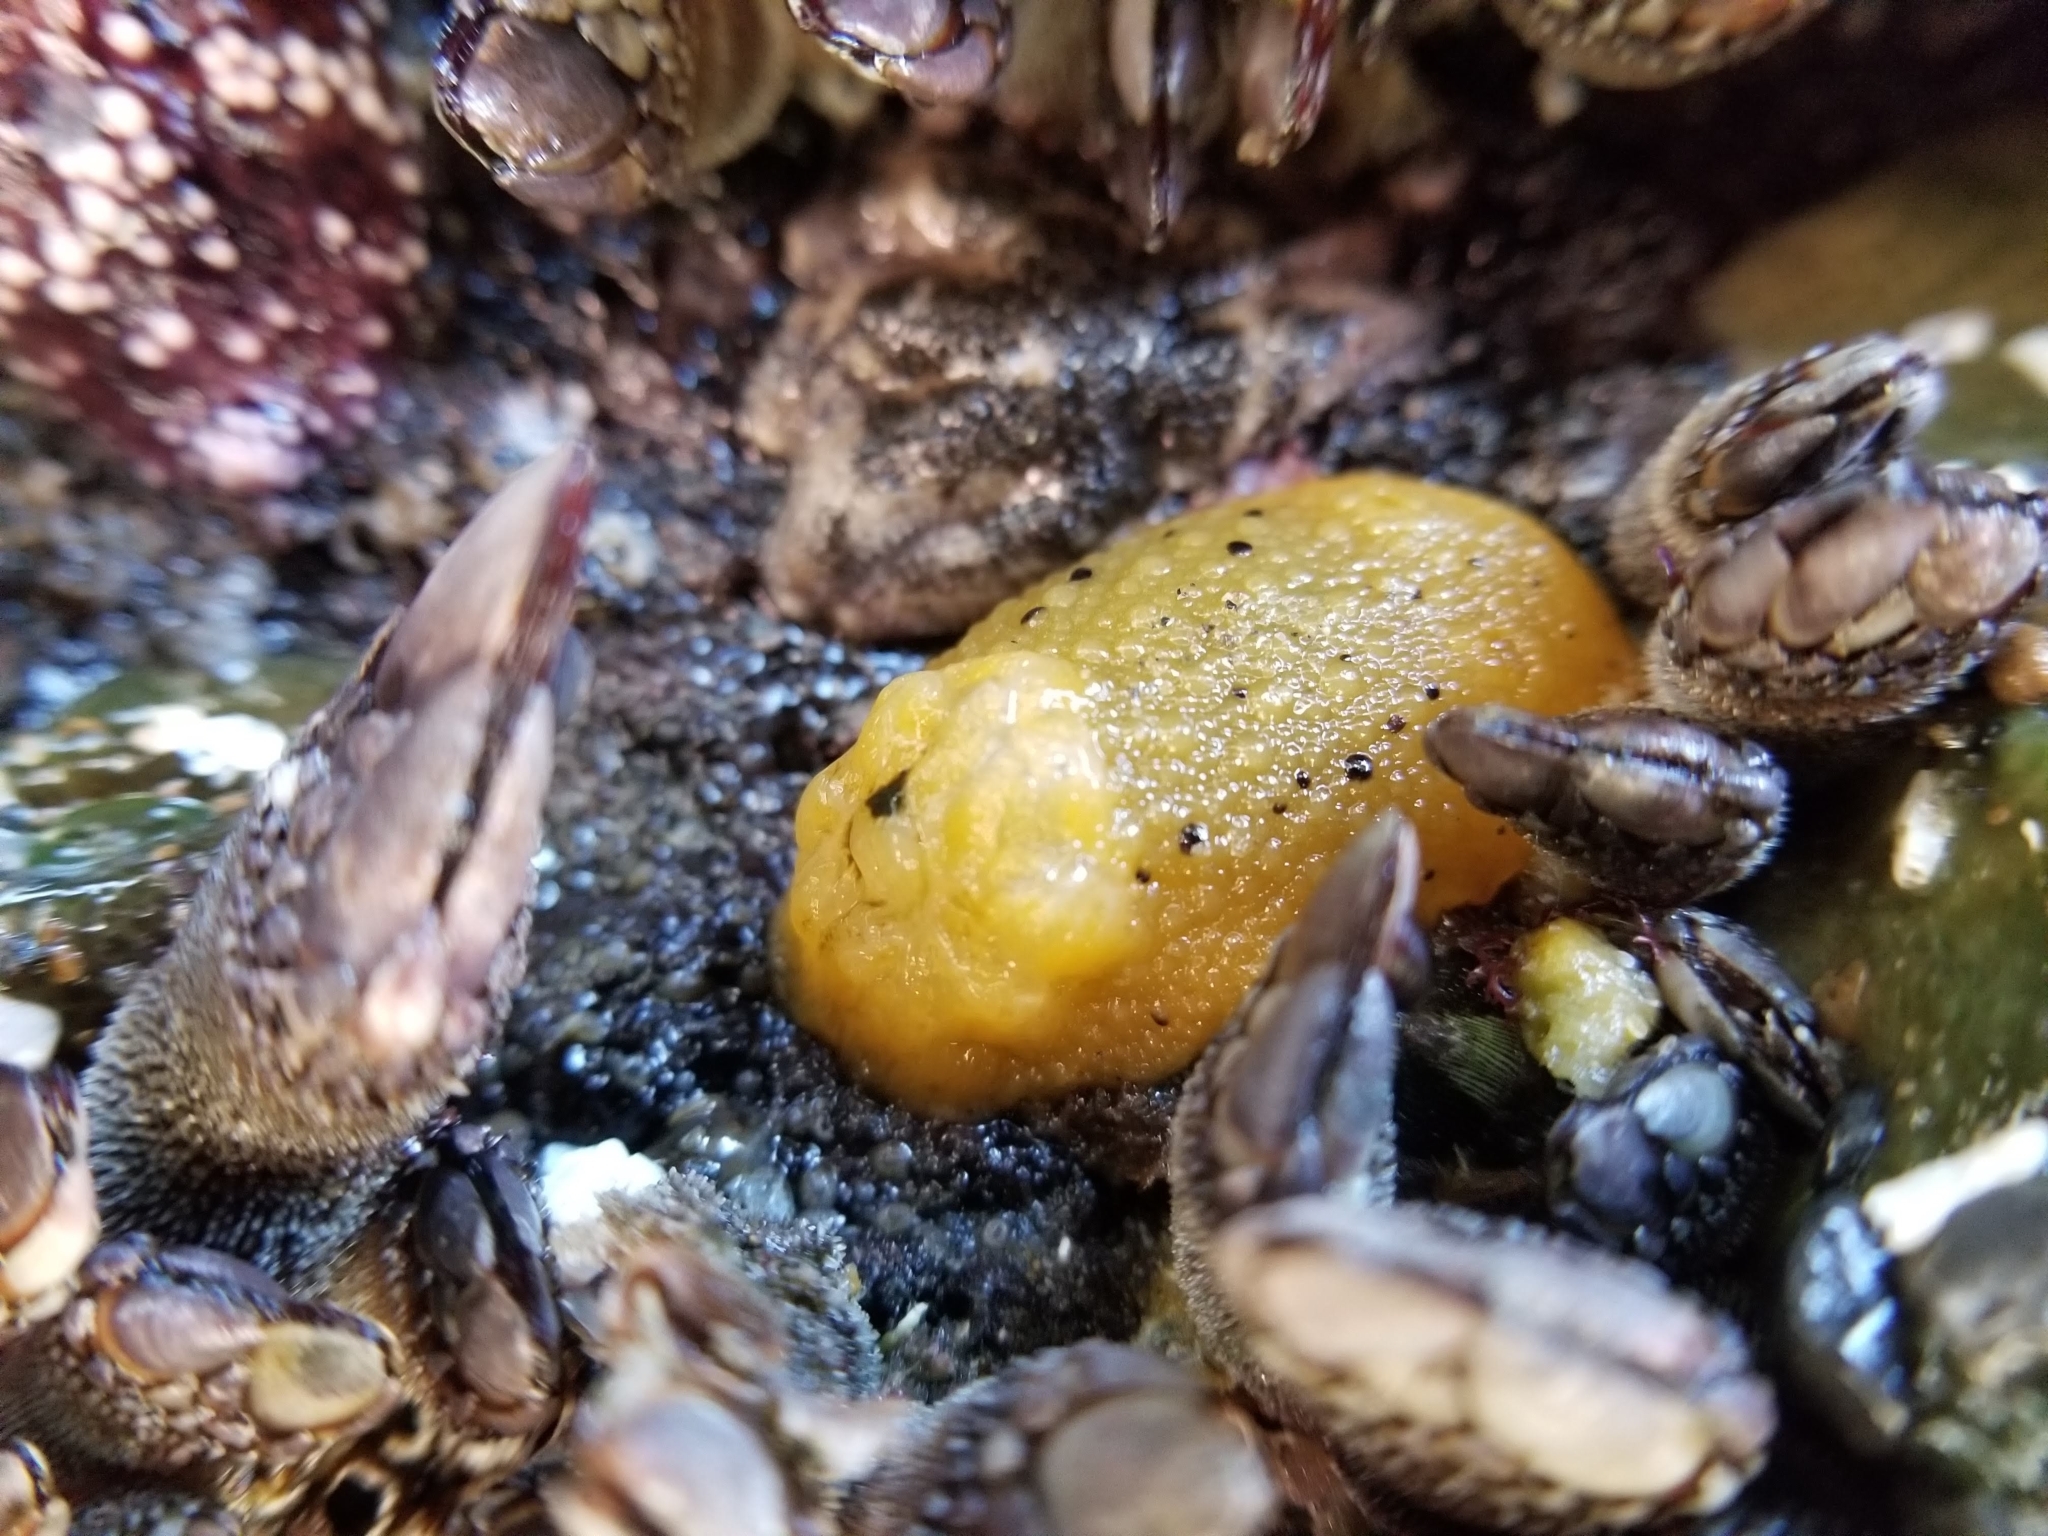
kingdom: Animalia
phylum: Mollusca
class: Gastropoda
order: Nudibranchia
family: Dorididae
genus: Doris
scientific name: Doris montereyensis
